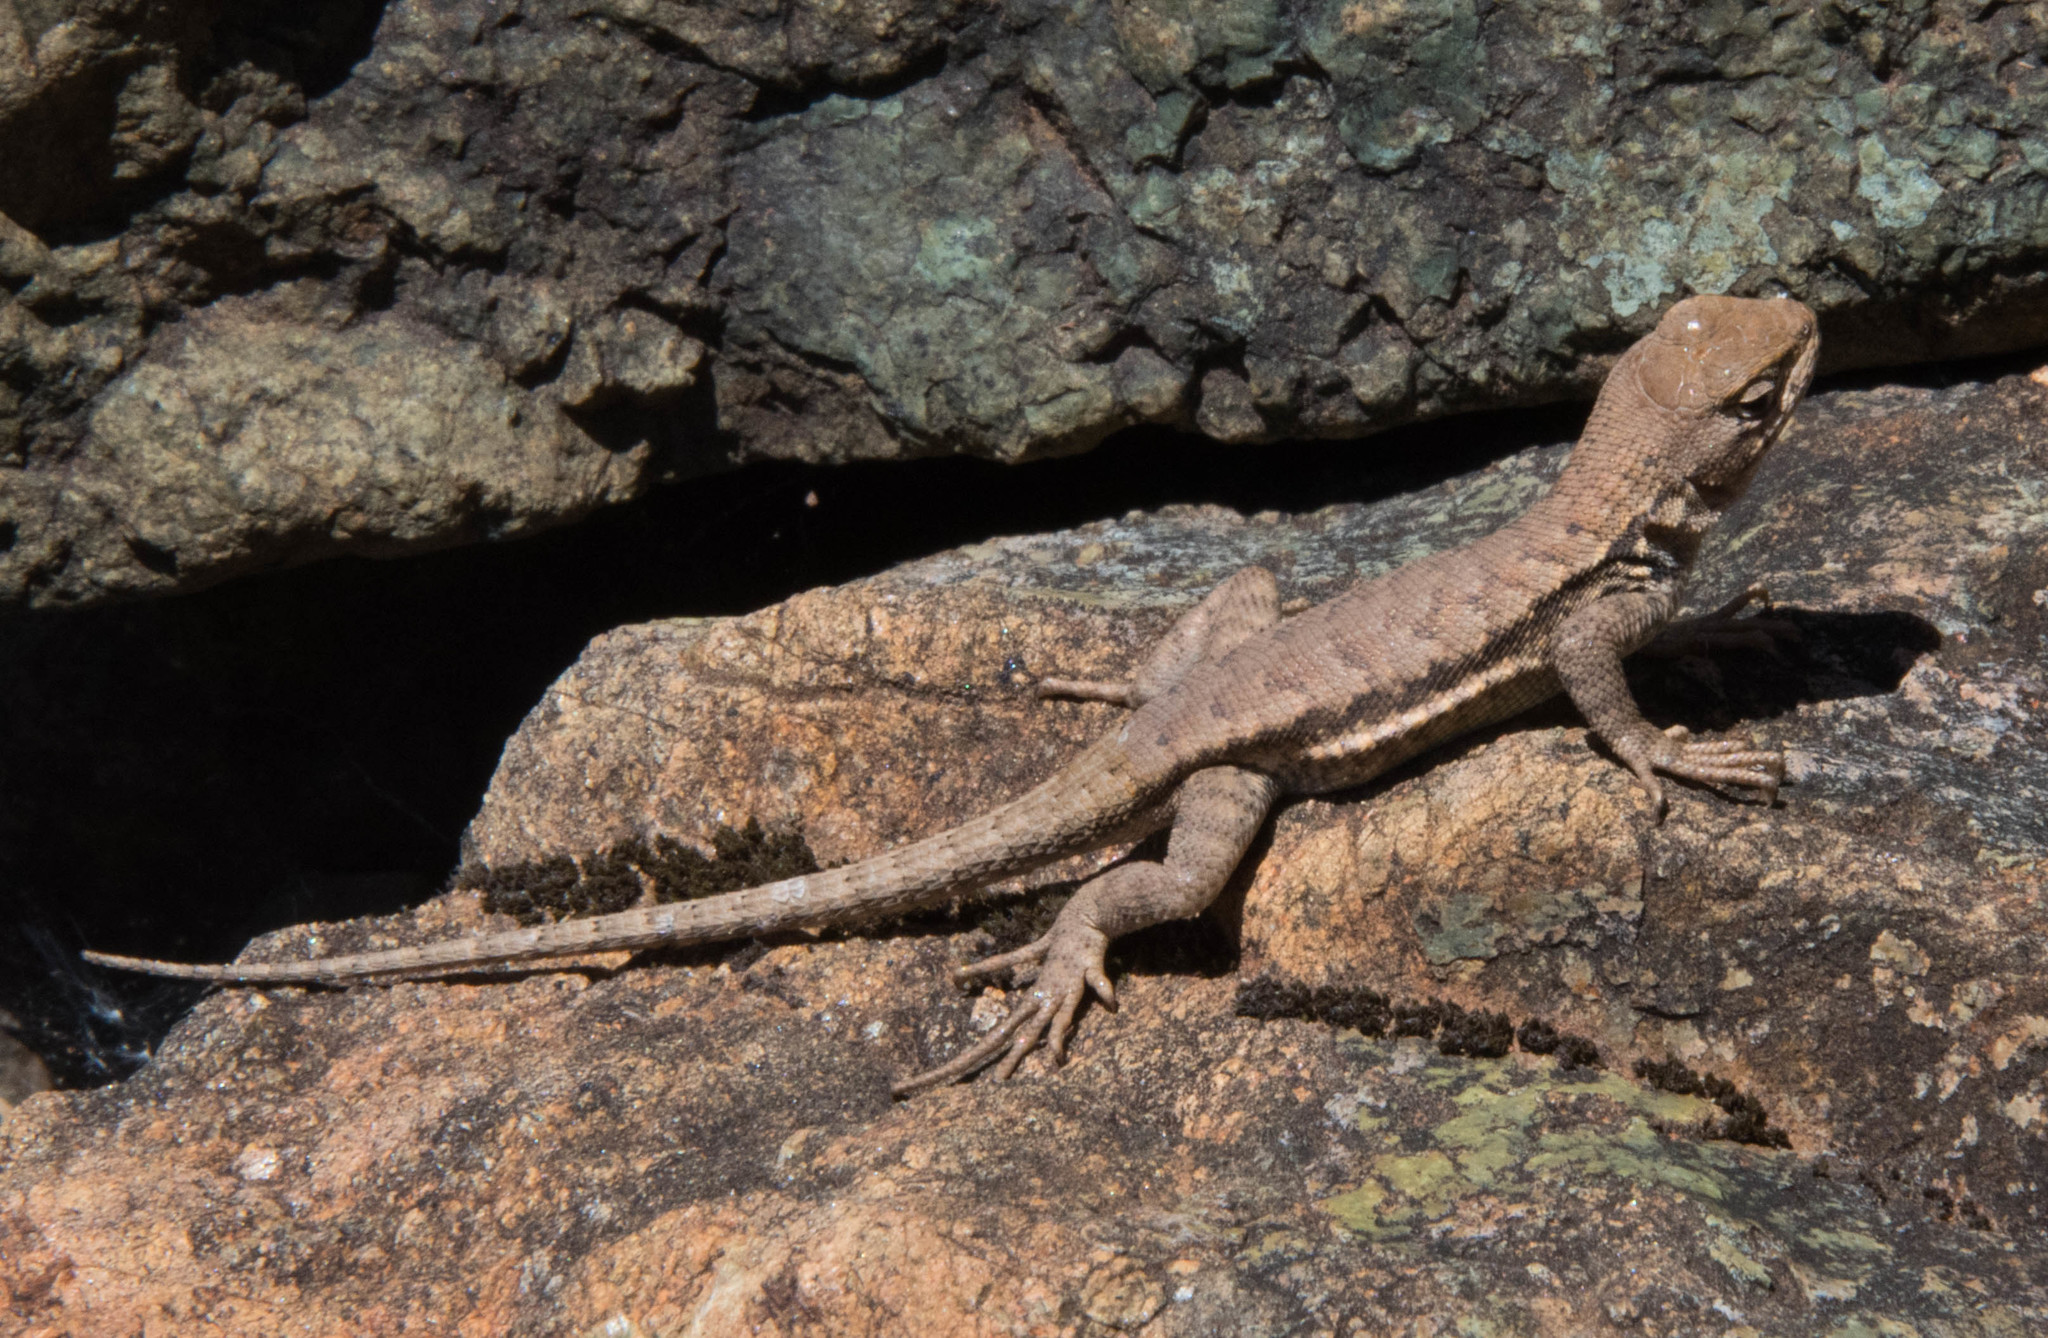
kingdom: Animalia
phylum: Chordata
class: Squamata
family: Phrynosomatidae
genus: Sceloporus
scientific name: Sceloporus graciosus
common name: Sagebrush lizard
